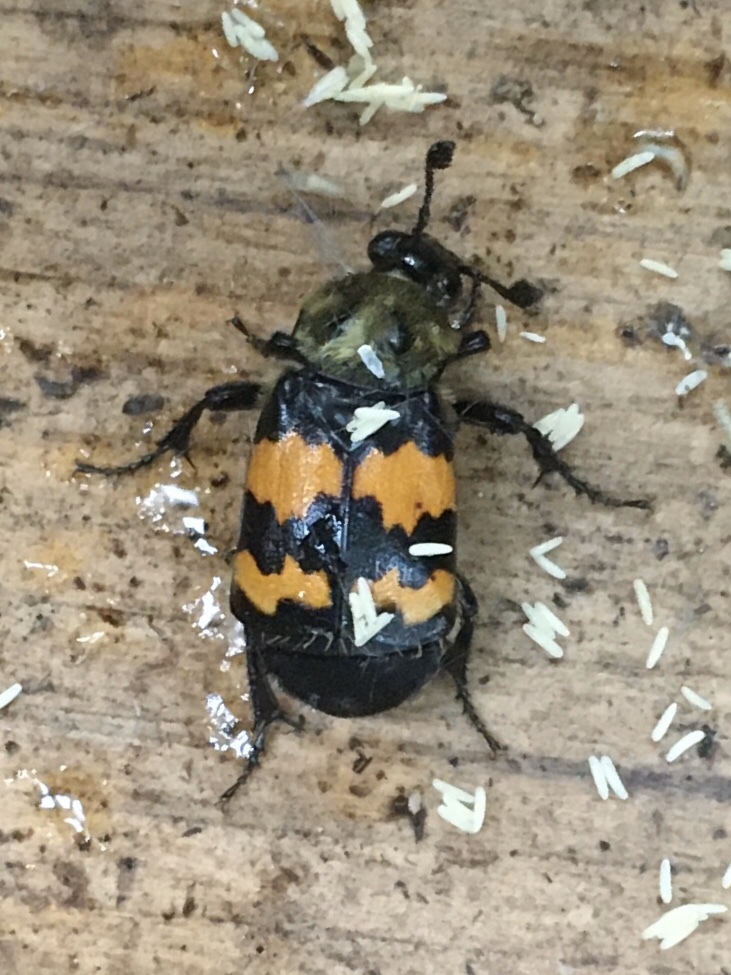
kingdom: Animalia
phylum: Arthropoda
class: Insecta
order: Coleoptera
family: Staphylinidae
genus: Nicrophorus
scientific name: Nicrophorus tomentosus
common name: Tomentose burying beetle
